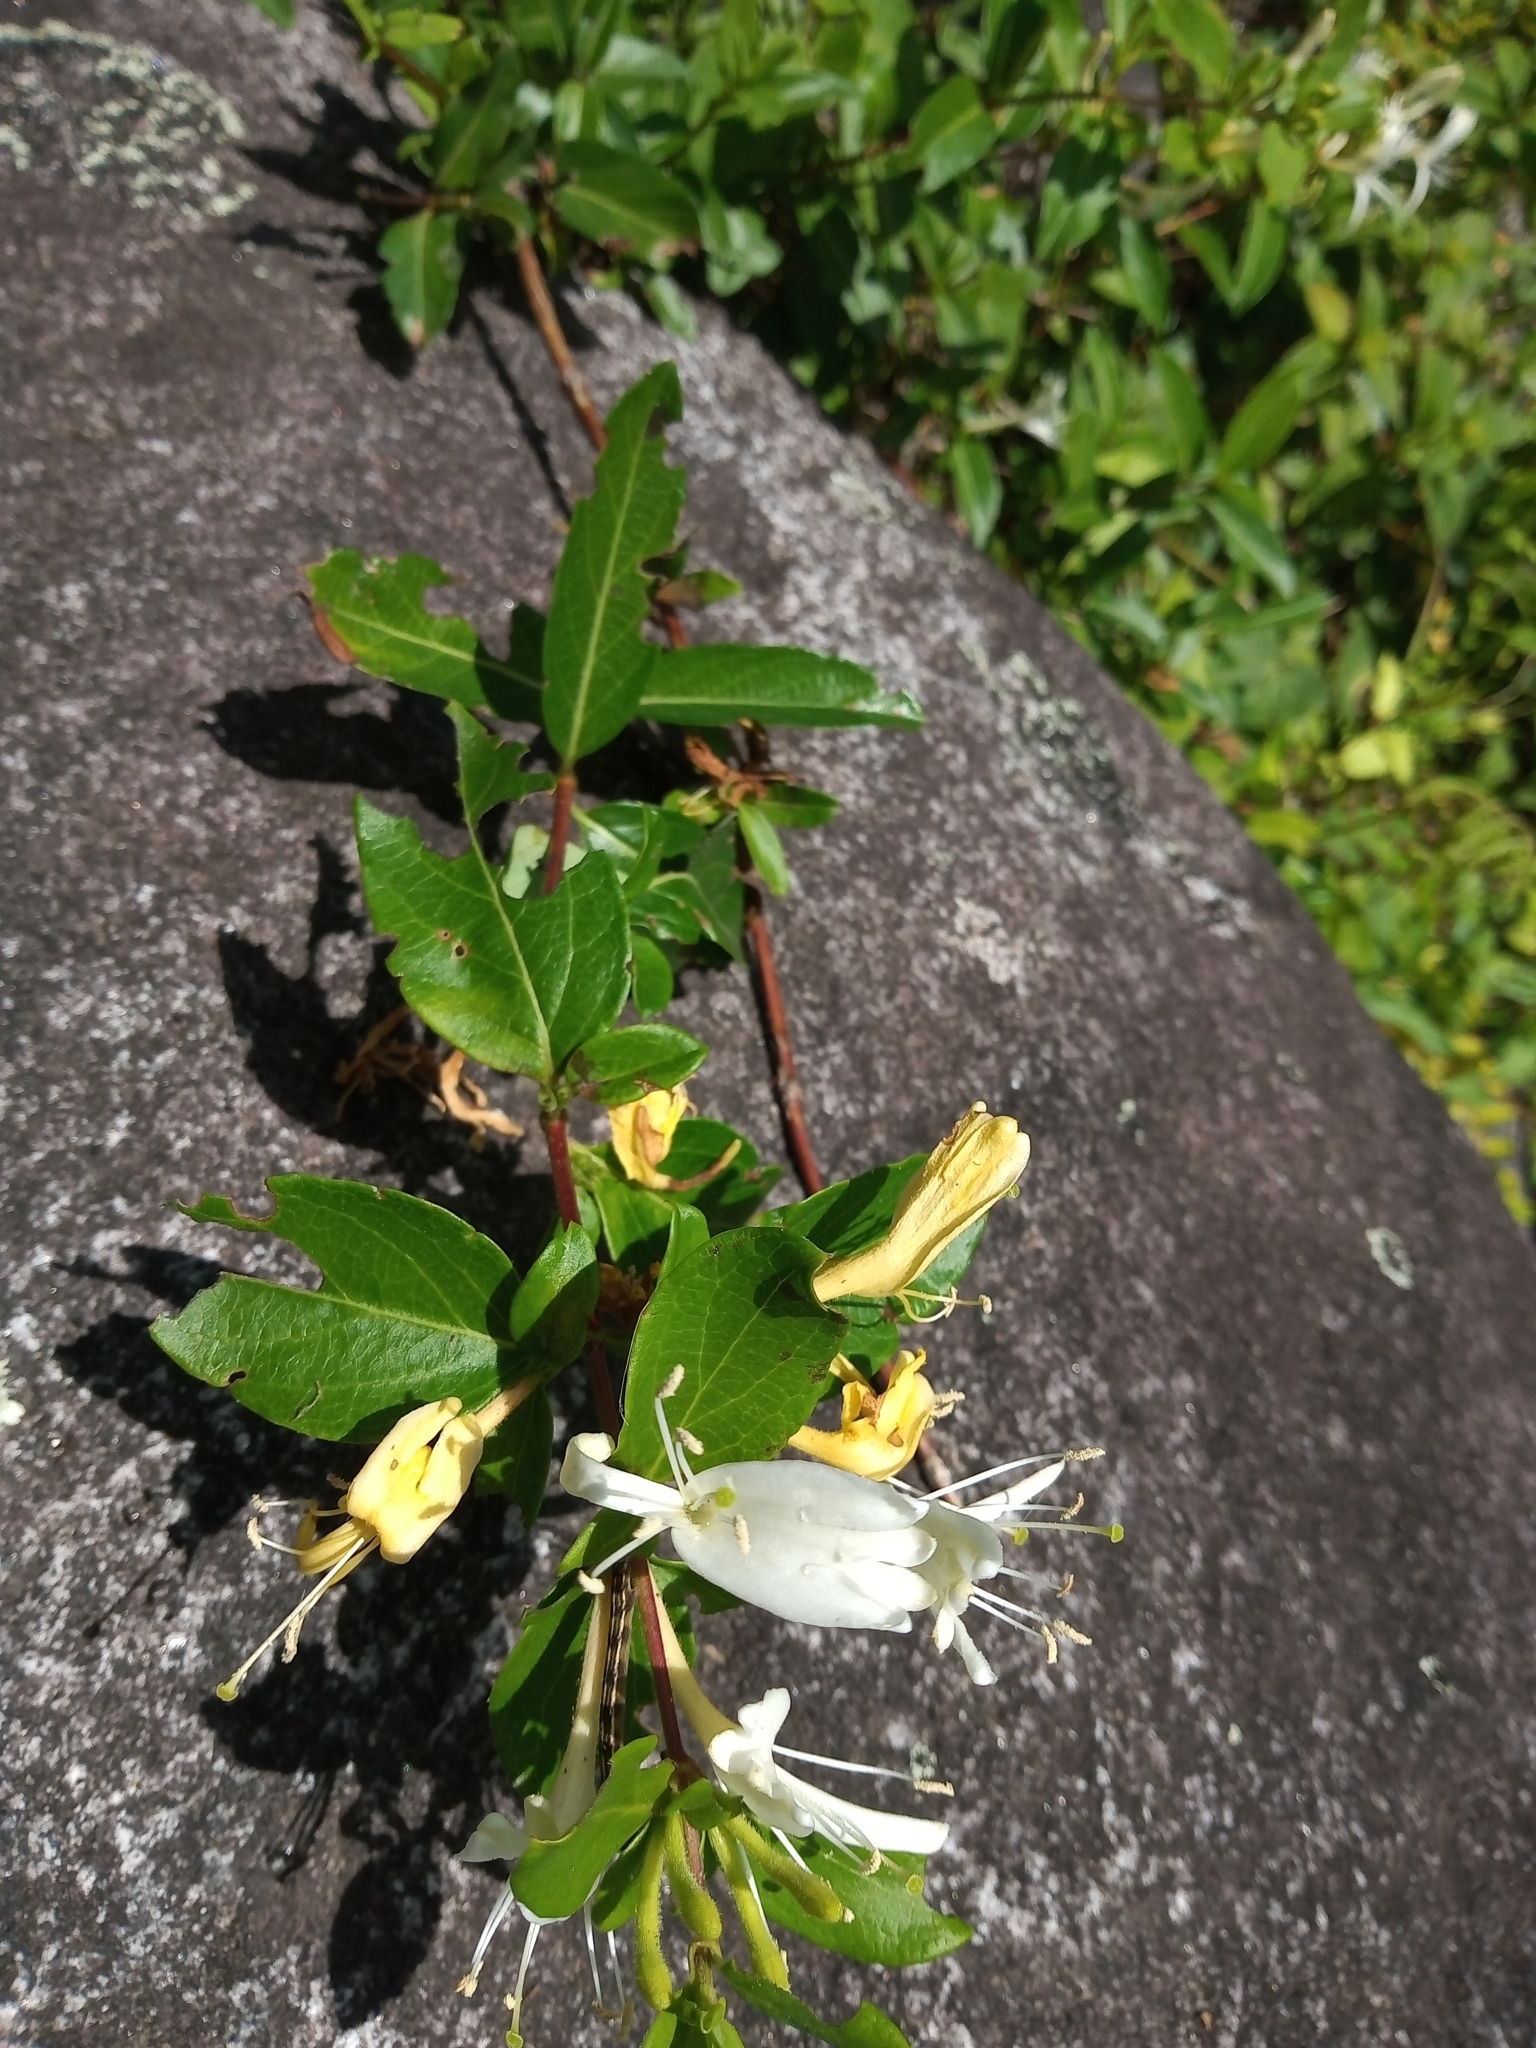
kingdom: Plantae
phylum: Tracheophyta
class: Magnoliopsida
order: Dipsacales
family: Caprifoliaceae
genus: Lonicera
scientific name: Lonicera japonica
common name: Japanese honeysuckle
